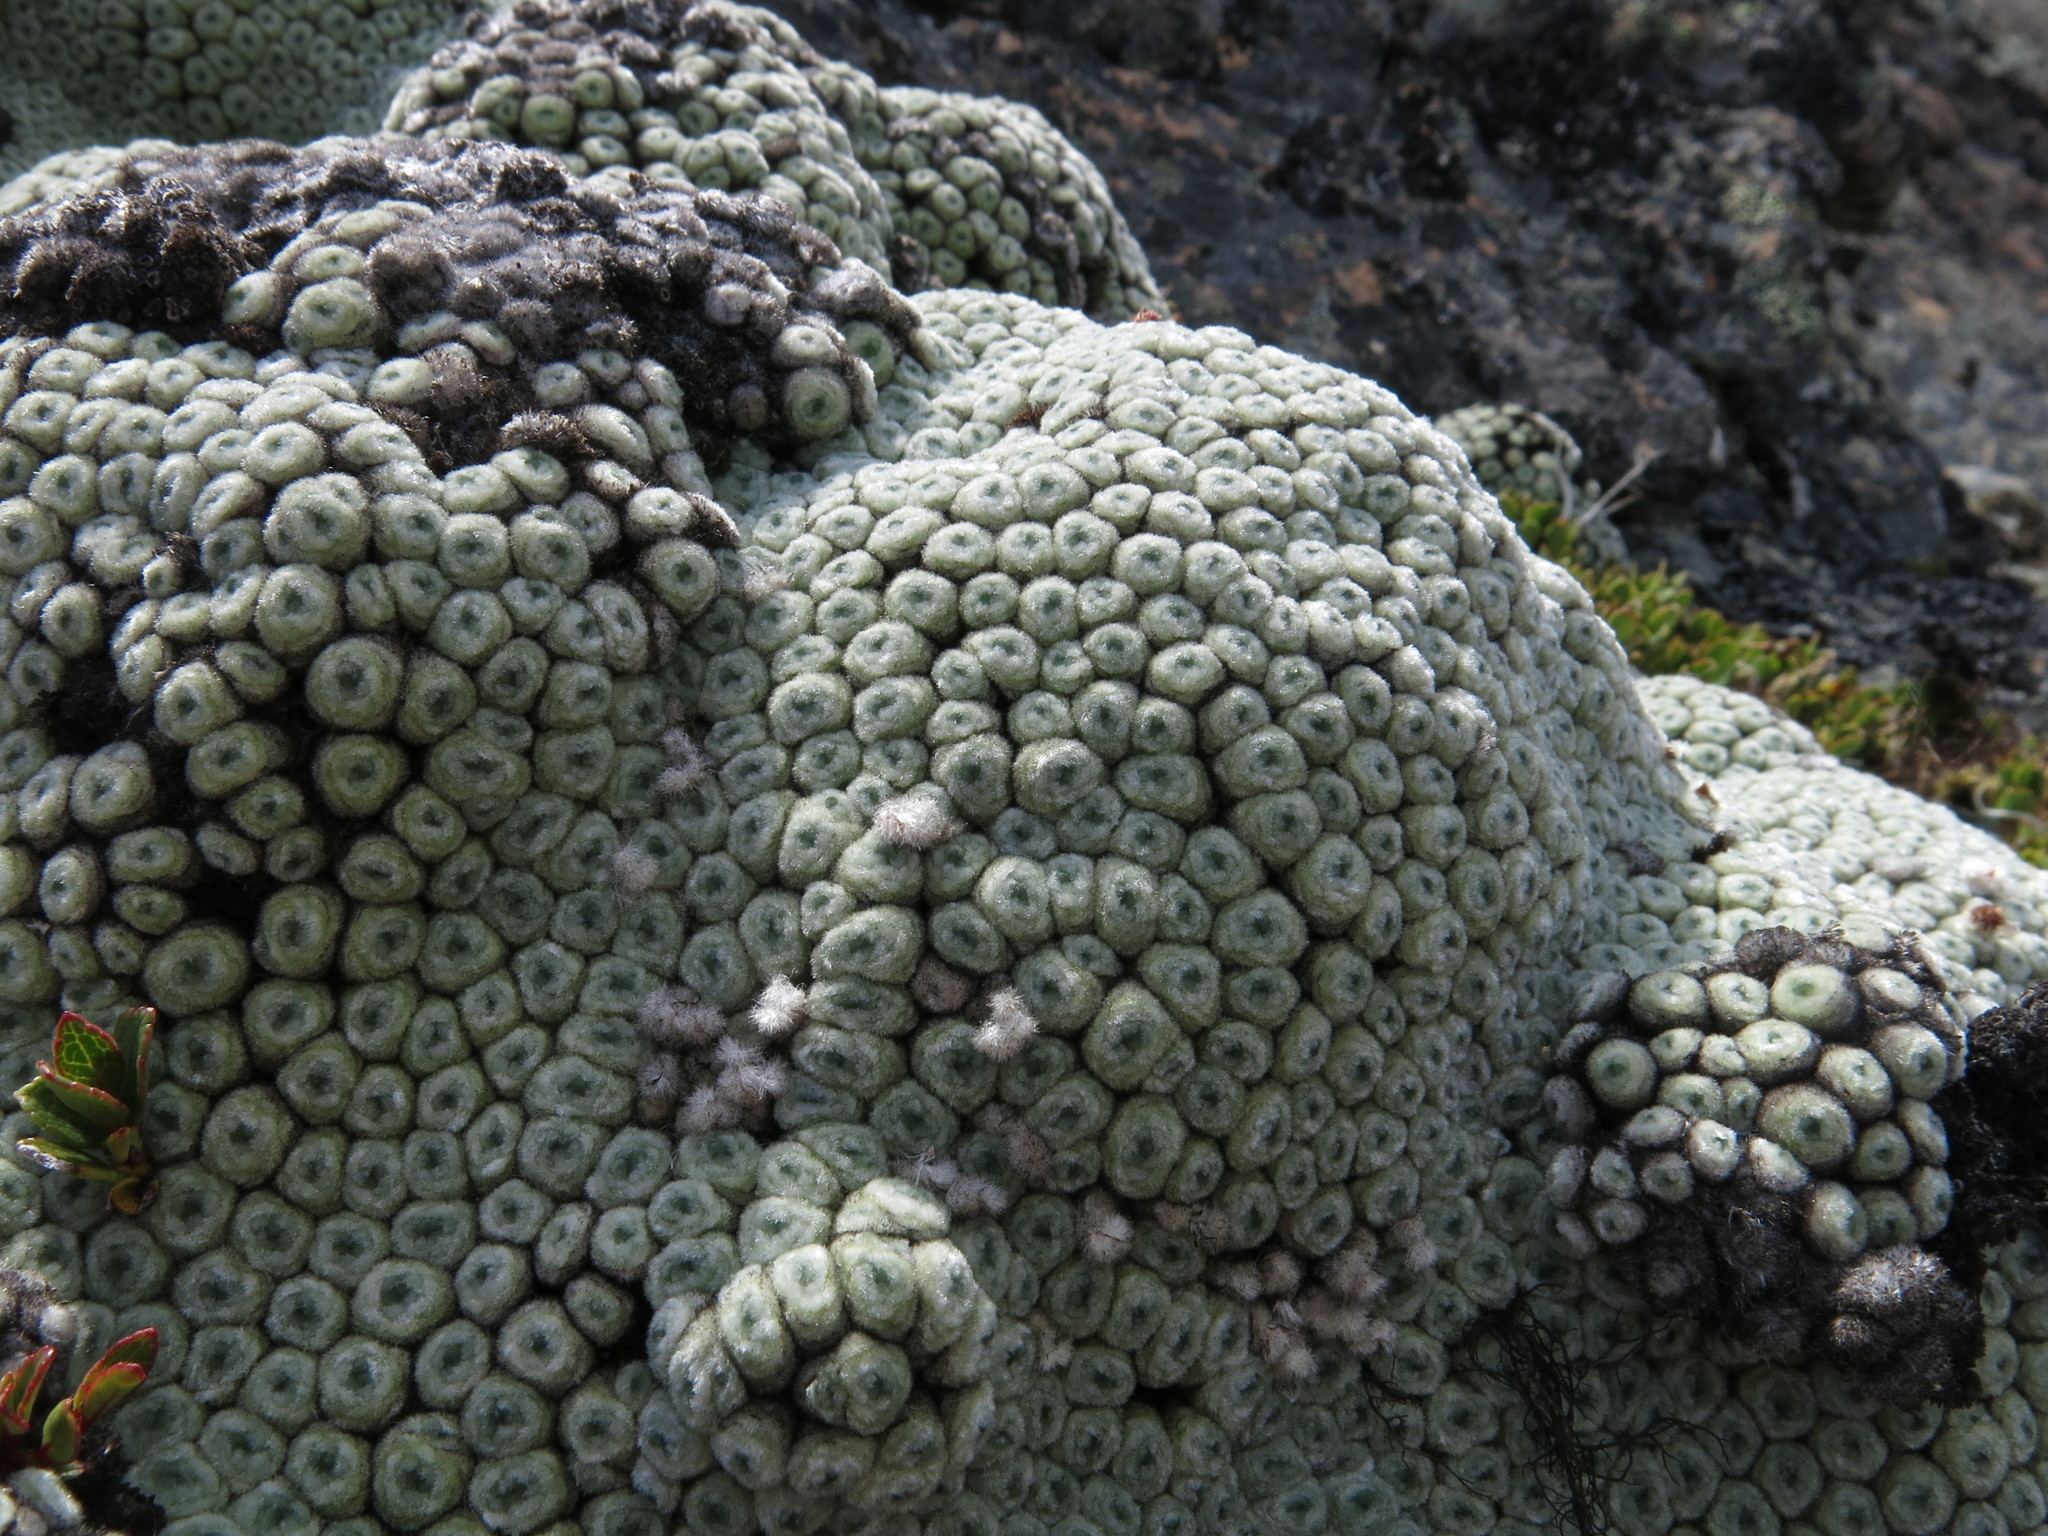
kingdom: Plantae
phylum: Tracheophyta
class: Magnoliopsida
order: Asterales
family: Asteraceae
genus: Raoulia
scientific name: Raoulia buchananii
